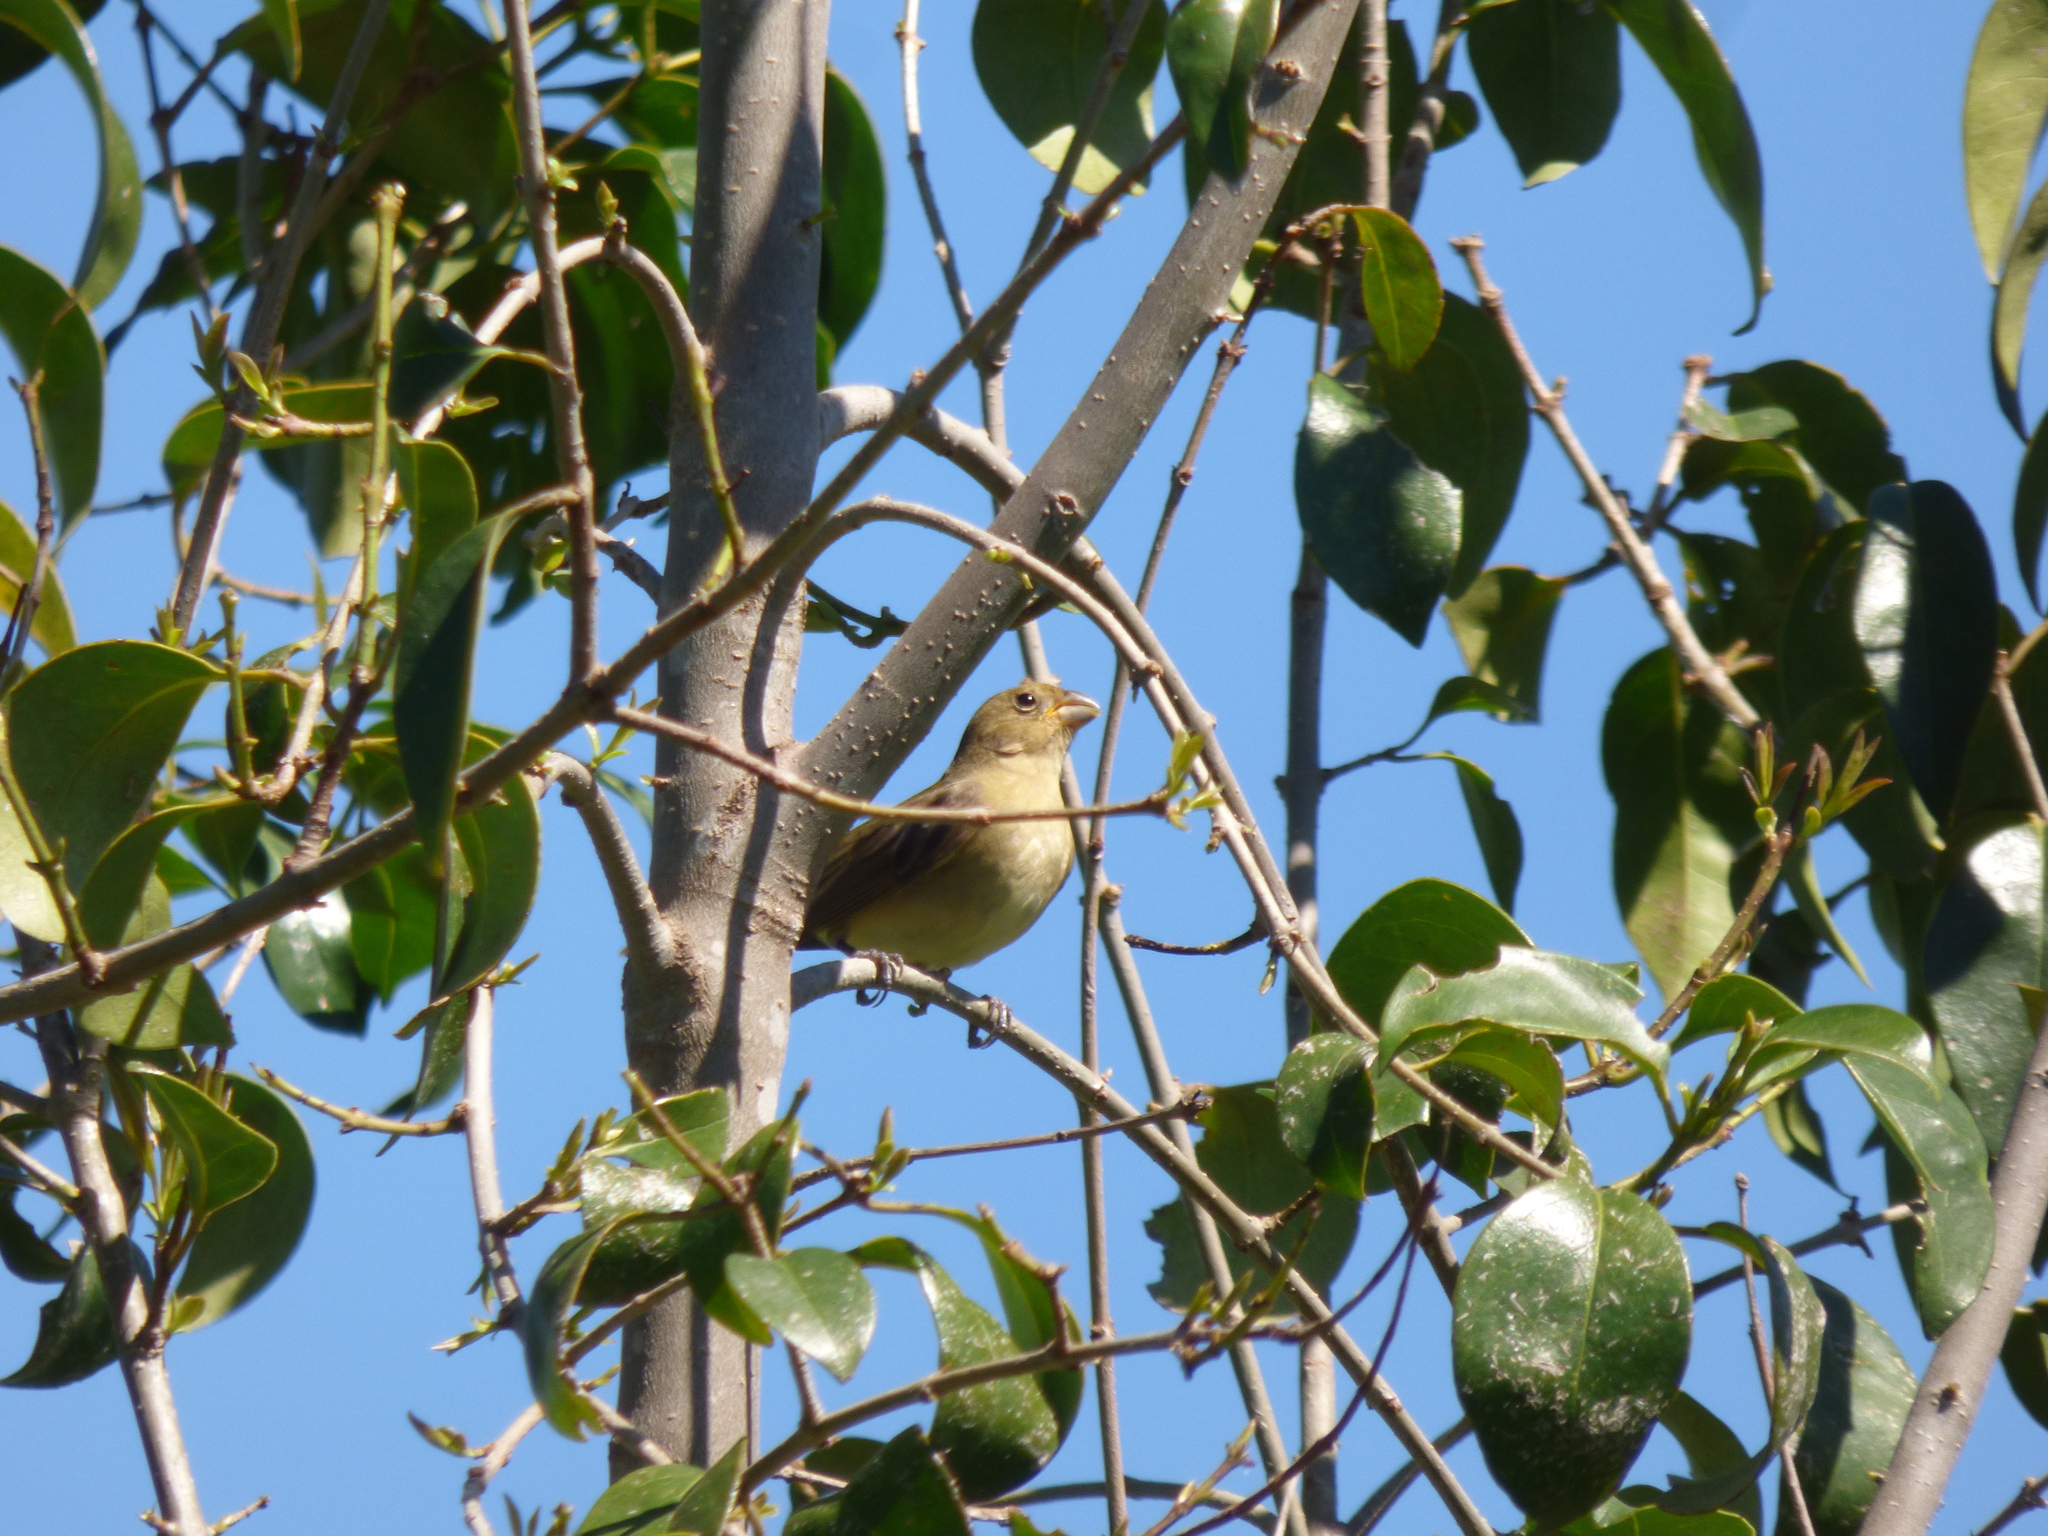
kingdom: Animalia
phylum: Chordata
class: Aves
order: Passeriformes
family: Thraupidae
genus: Sporophila
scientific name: Sporophila caerulescens
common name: Double-collared seedeater
